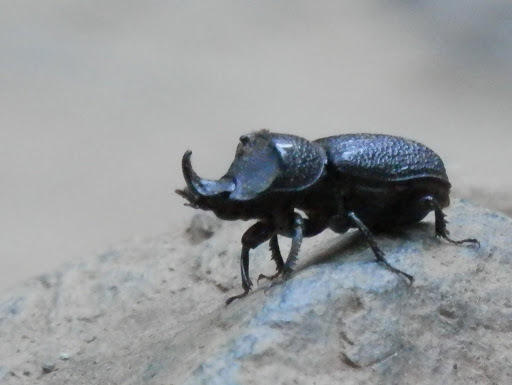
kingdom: Animalia
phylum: Arthropoda
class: Insecta
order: Coleoptera
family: Lucanidae
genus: Sinodendron
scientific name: Sinodendron rugosum
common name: Rugose stag beelte
